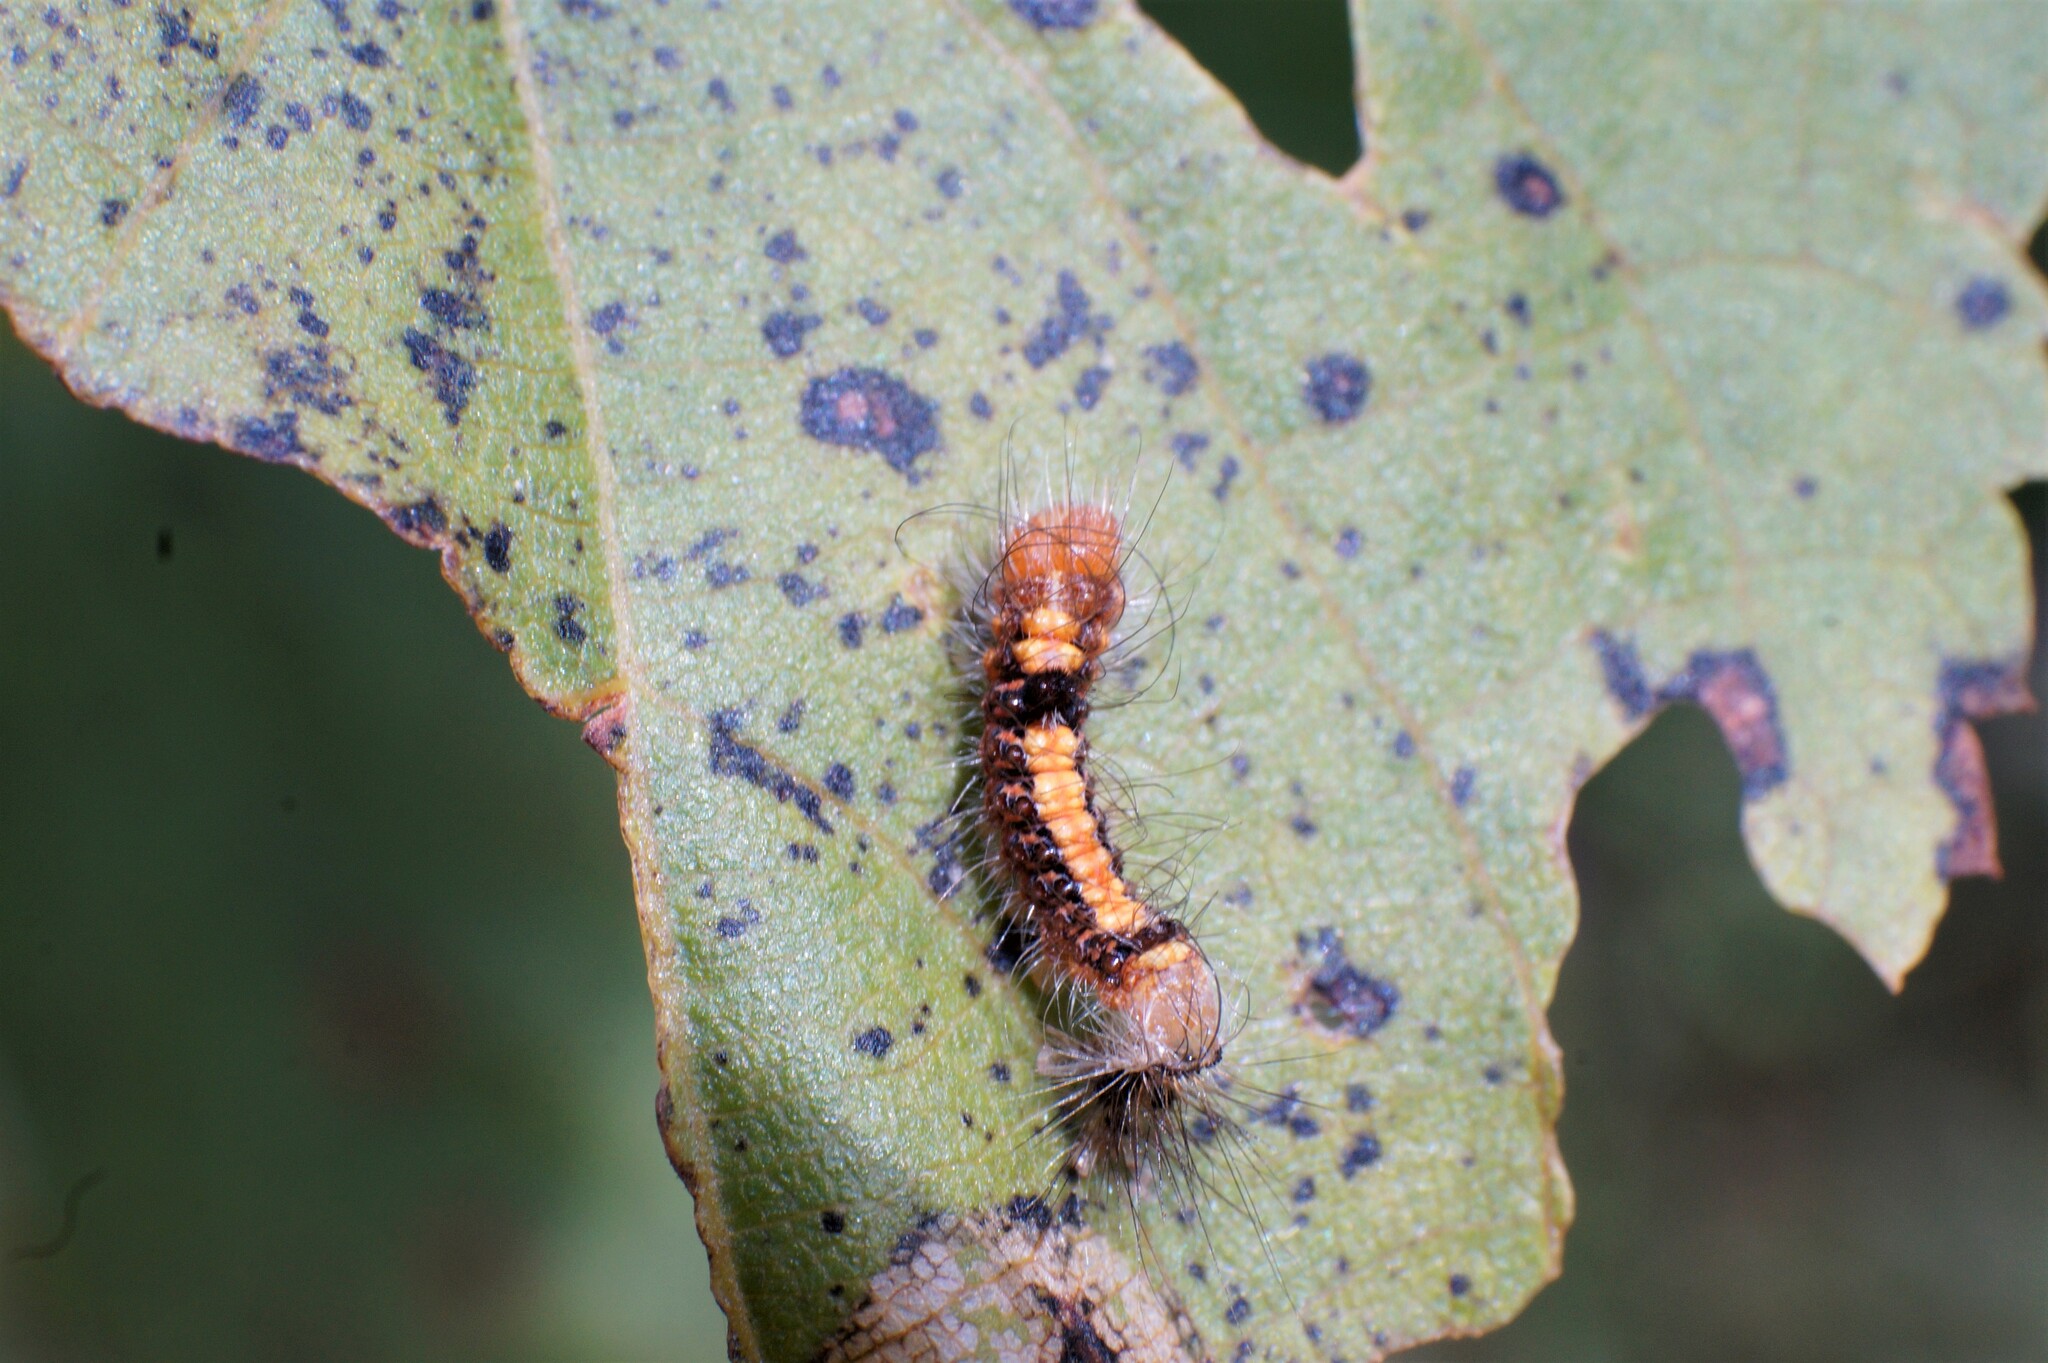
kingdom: Animalia
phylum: Arthropoda
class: Insecta
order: Lepidoptera
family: Noctuidae
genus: Acronicta
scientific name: Acronicta psi
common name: Grey dagger
